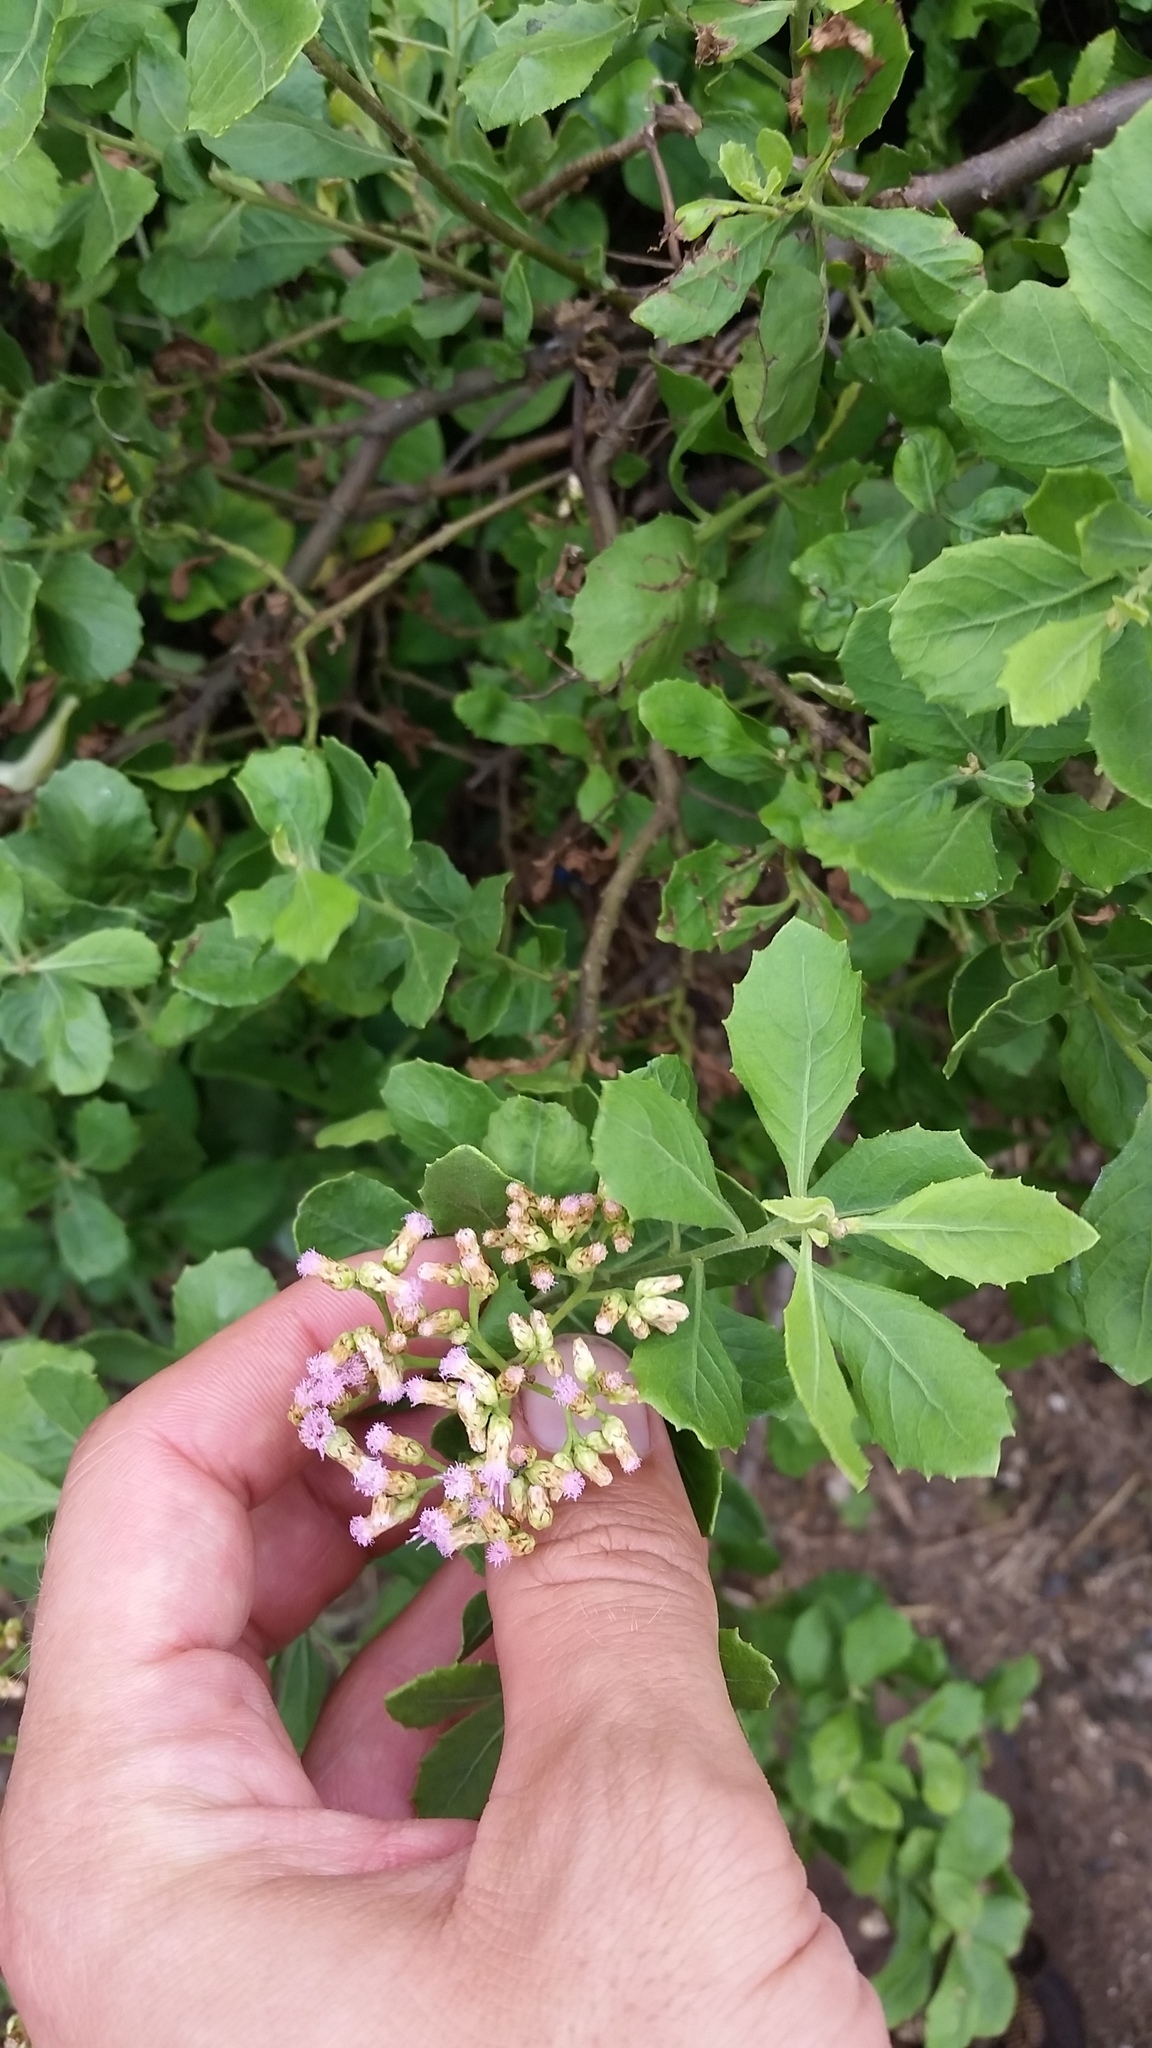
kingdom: Plantae
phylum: Tracheophyta
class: Magnoliopsida
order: Asterales
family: Asteraceae
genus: Pluchea
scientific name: Pluchea indica
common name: Indian fleabane
